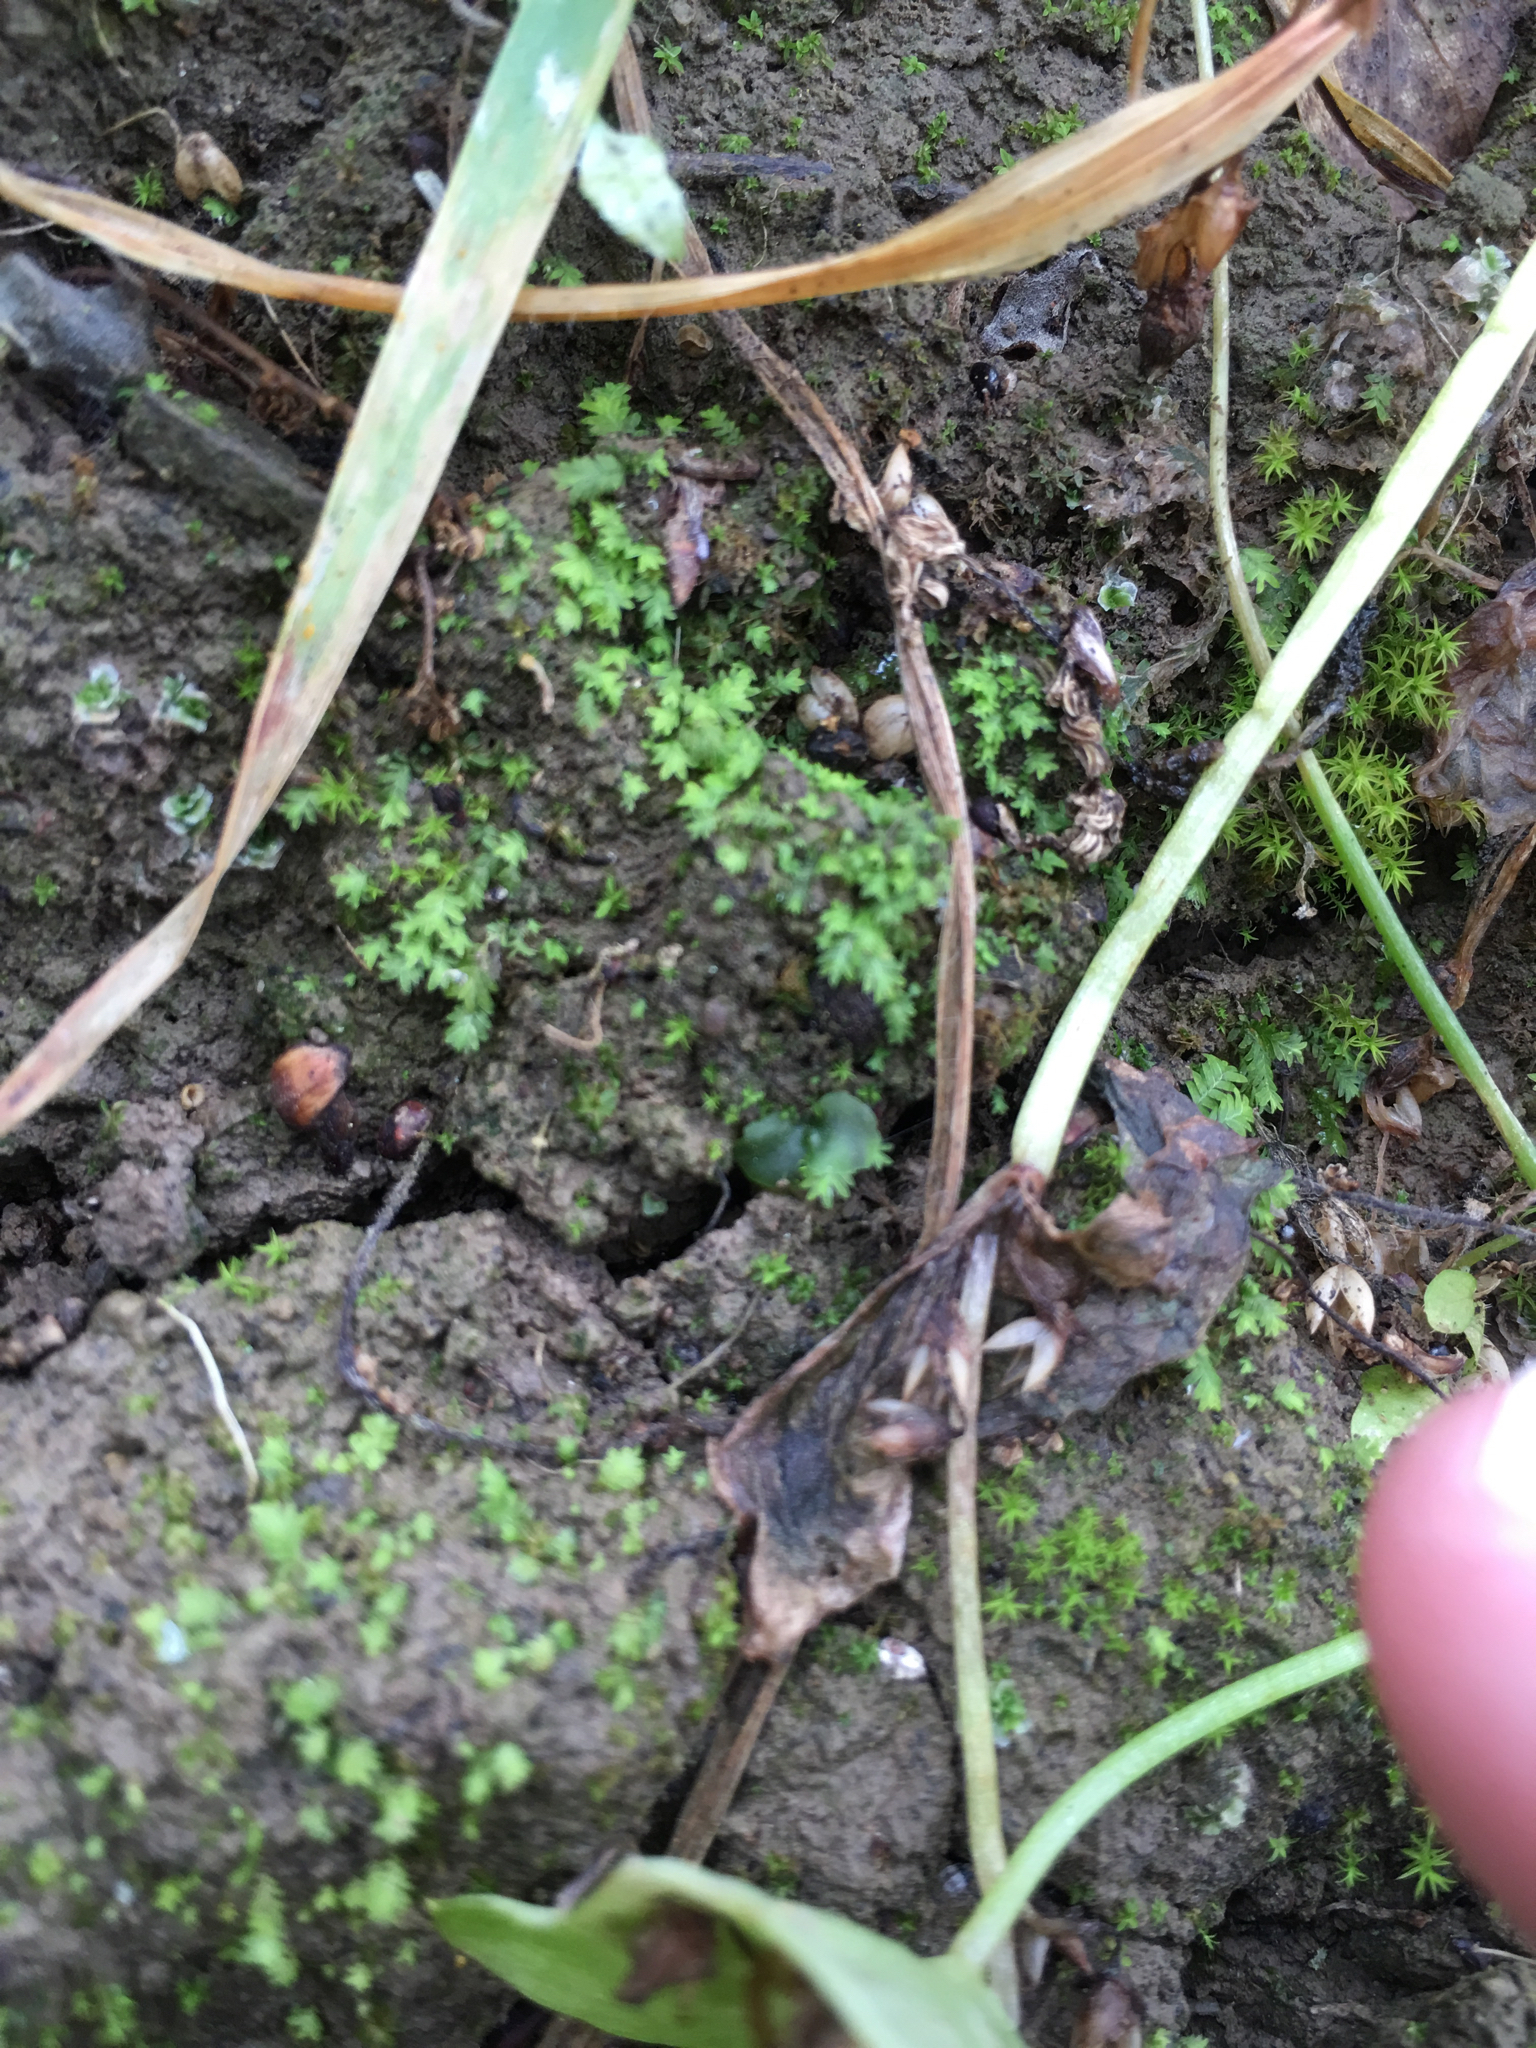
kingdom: Plantae
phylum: Tracheophyta
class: Polypodiopsida
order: Polypodiales
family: Pteridaceae
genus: Pentagramma
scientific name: Pentagramma triangularis
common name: Gold fern
